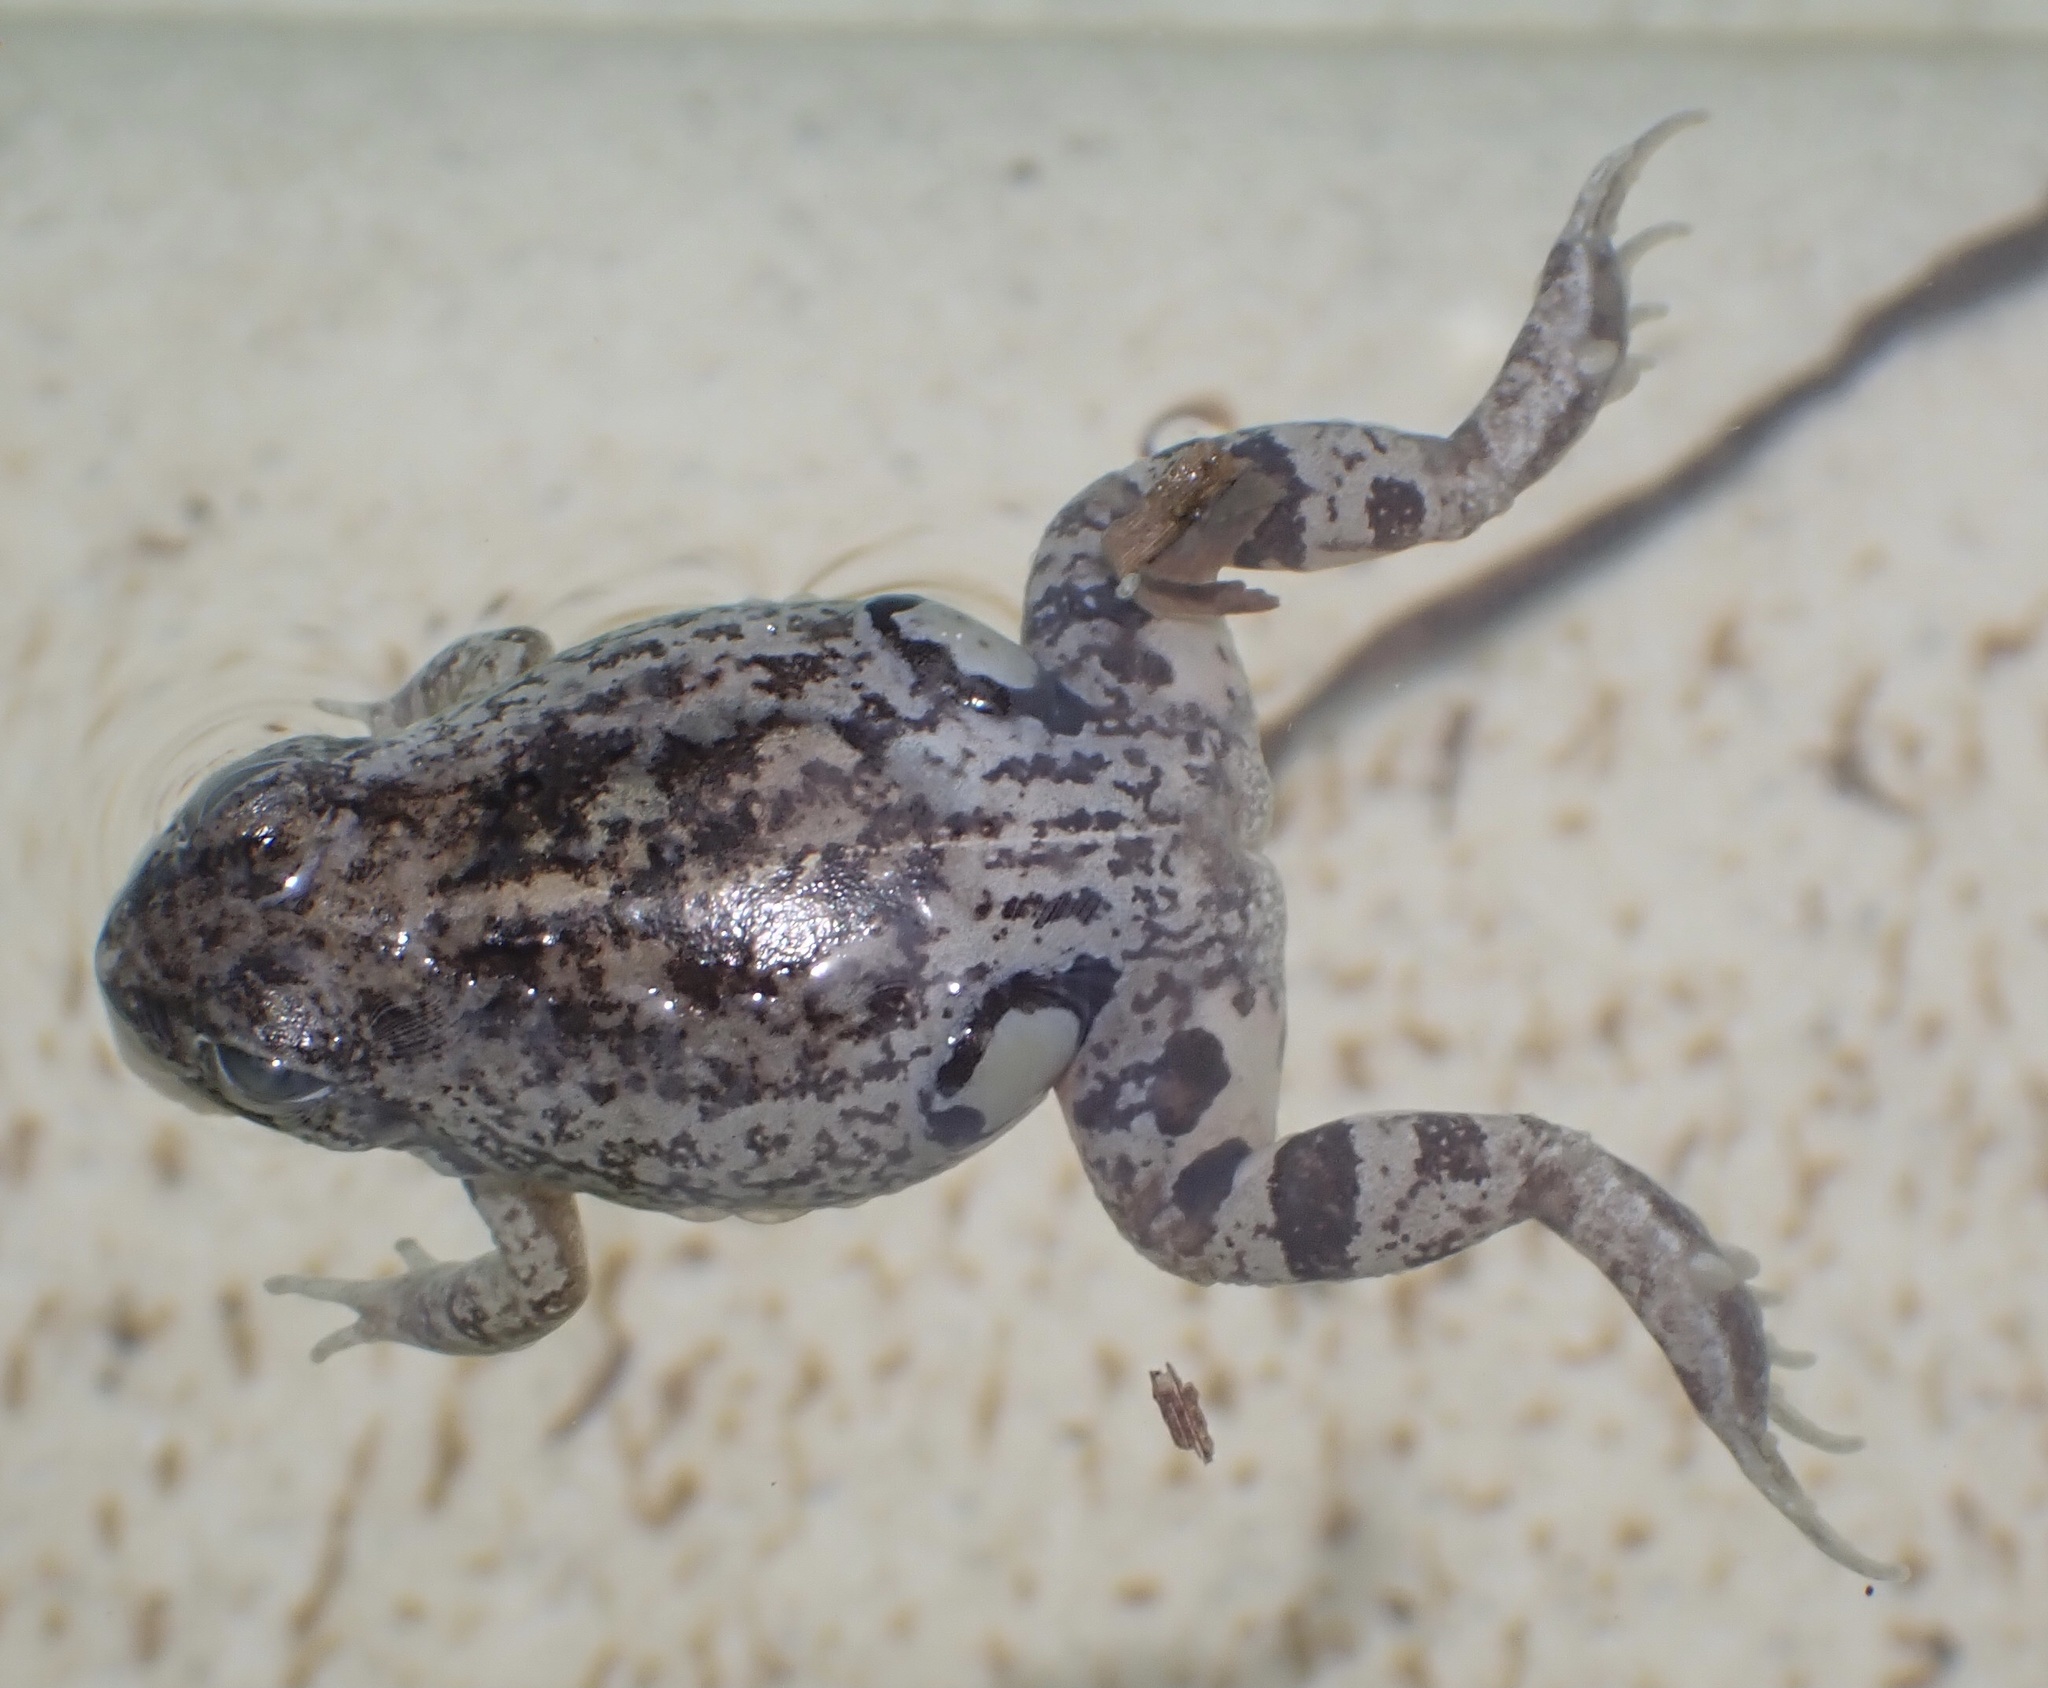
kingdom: Animalia
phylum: Chordata
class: Amphibia
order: Anura
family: Leptodactylidae
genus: Pleurodema
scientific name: Pleurodema brachyops
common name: Colombian four-eyed frog
